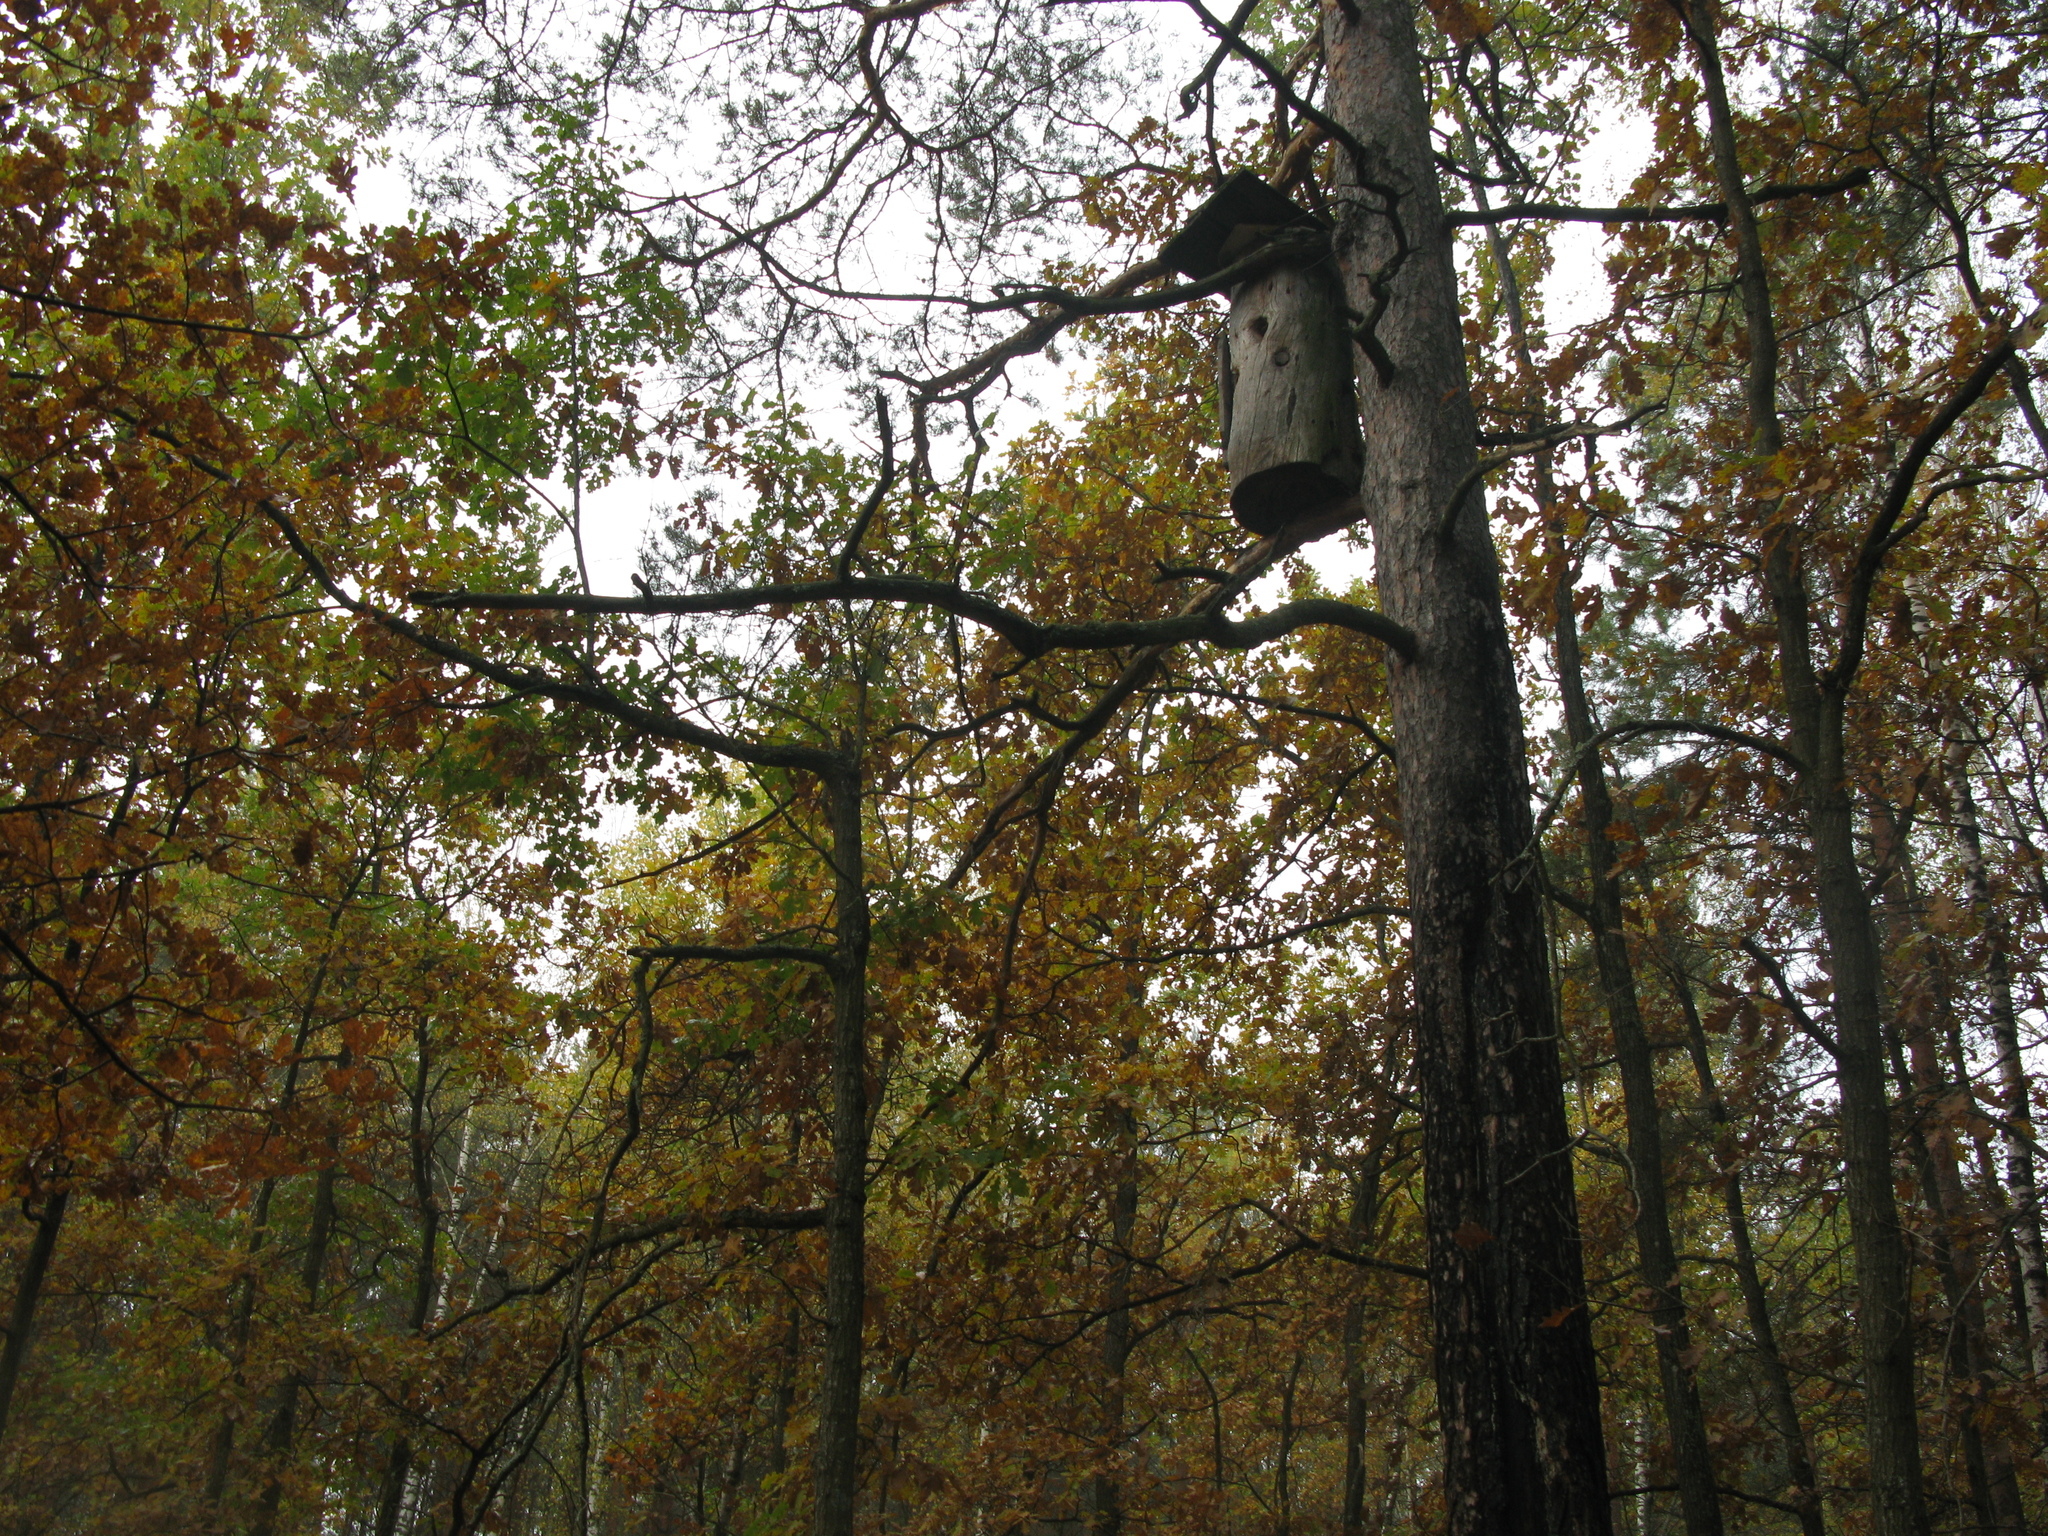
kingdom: Plantae
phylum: Tracheophyta
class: Magnoliopsida
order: Fagales
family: Fagaceae
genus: Quercus
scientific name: Quercus robur
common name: Pedunculate oak
